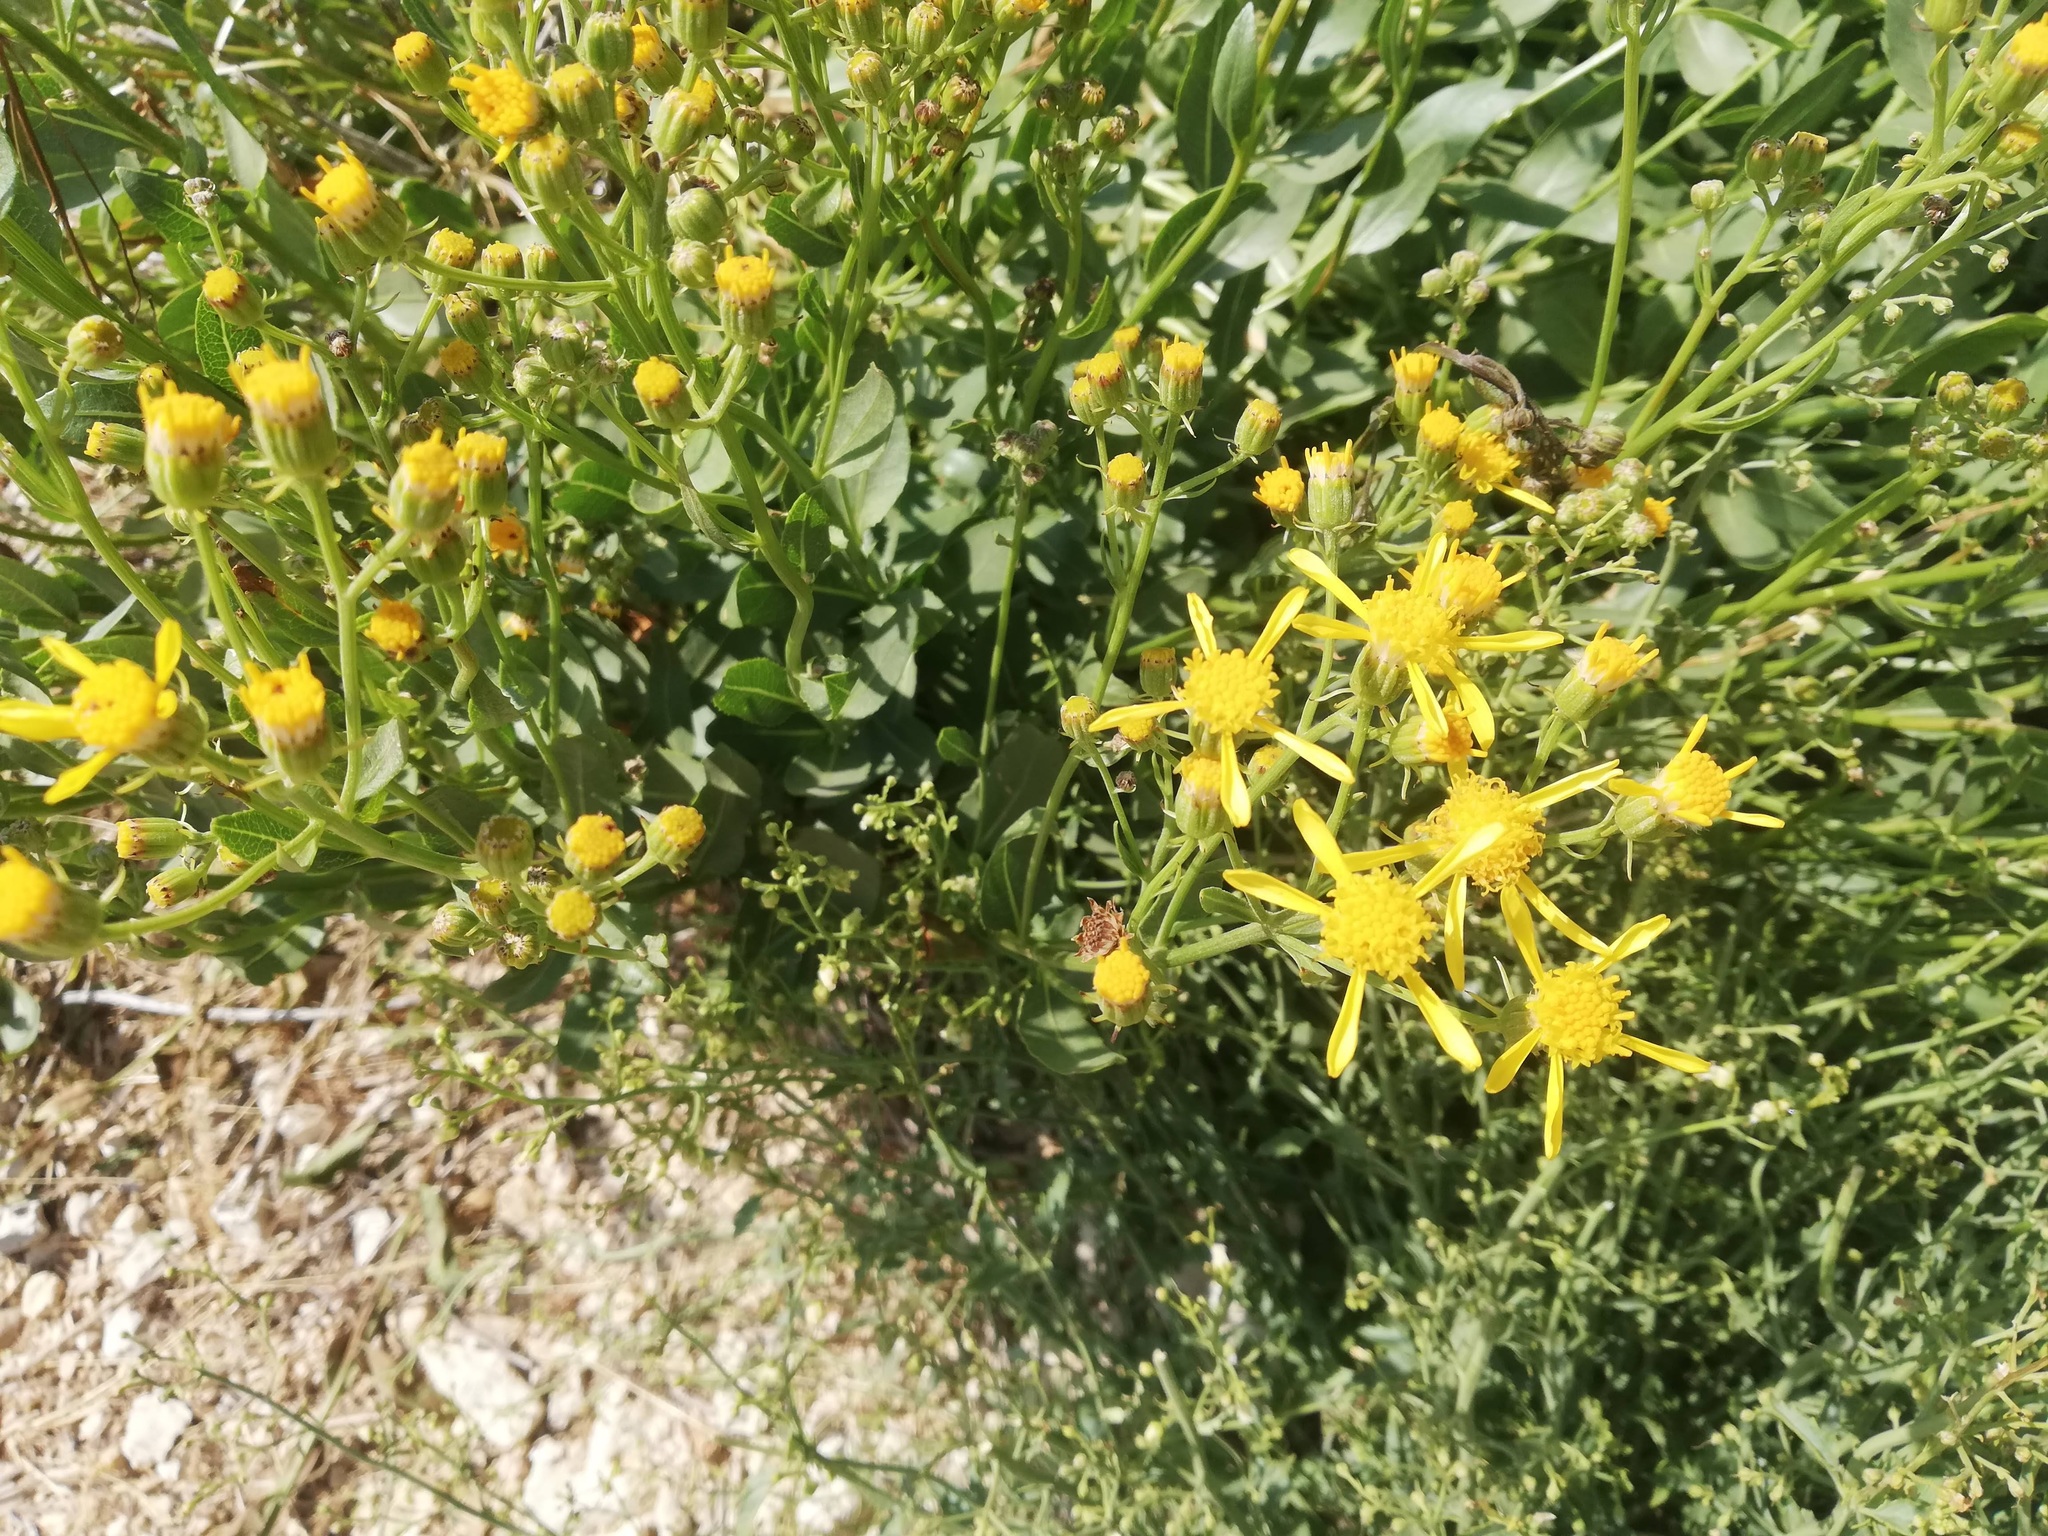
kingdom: Plantae
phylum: Tracheophyta
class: Magnoliopsida
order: Asterales
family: Asteraceae
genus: Senecio
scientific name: Senecio doriiformis
